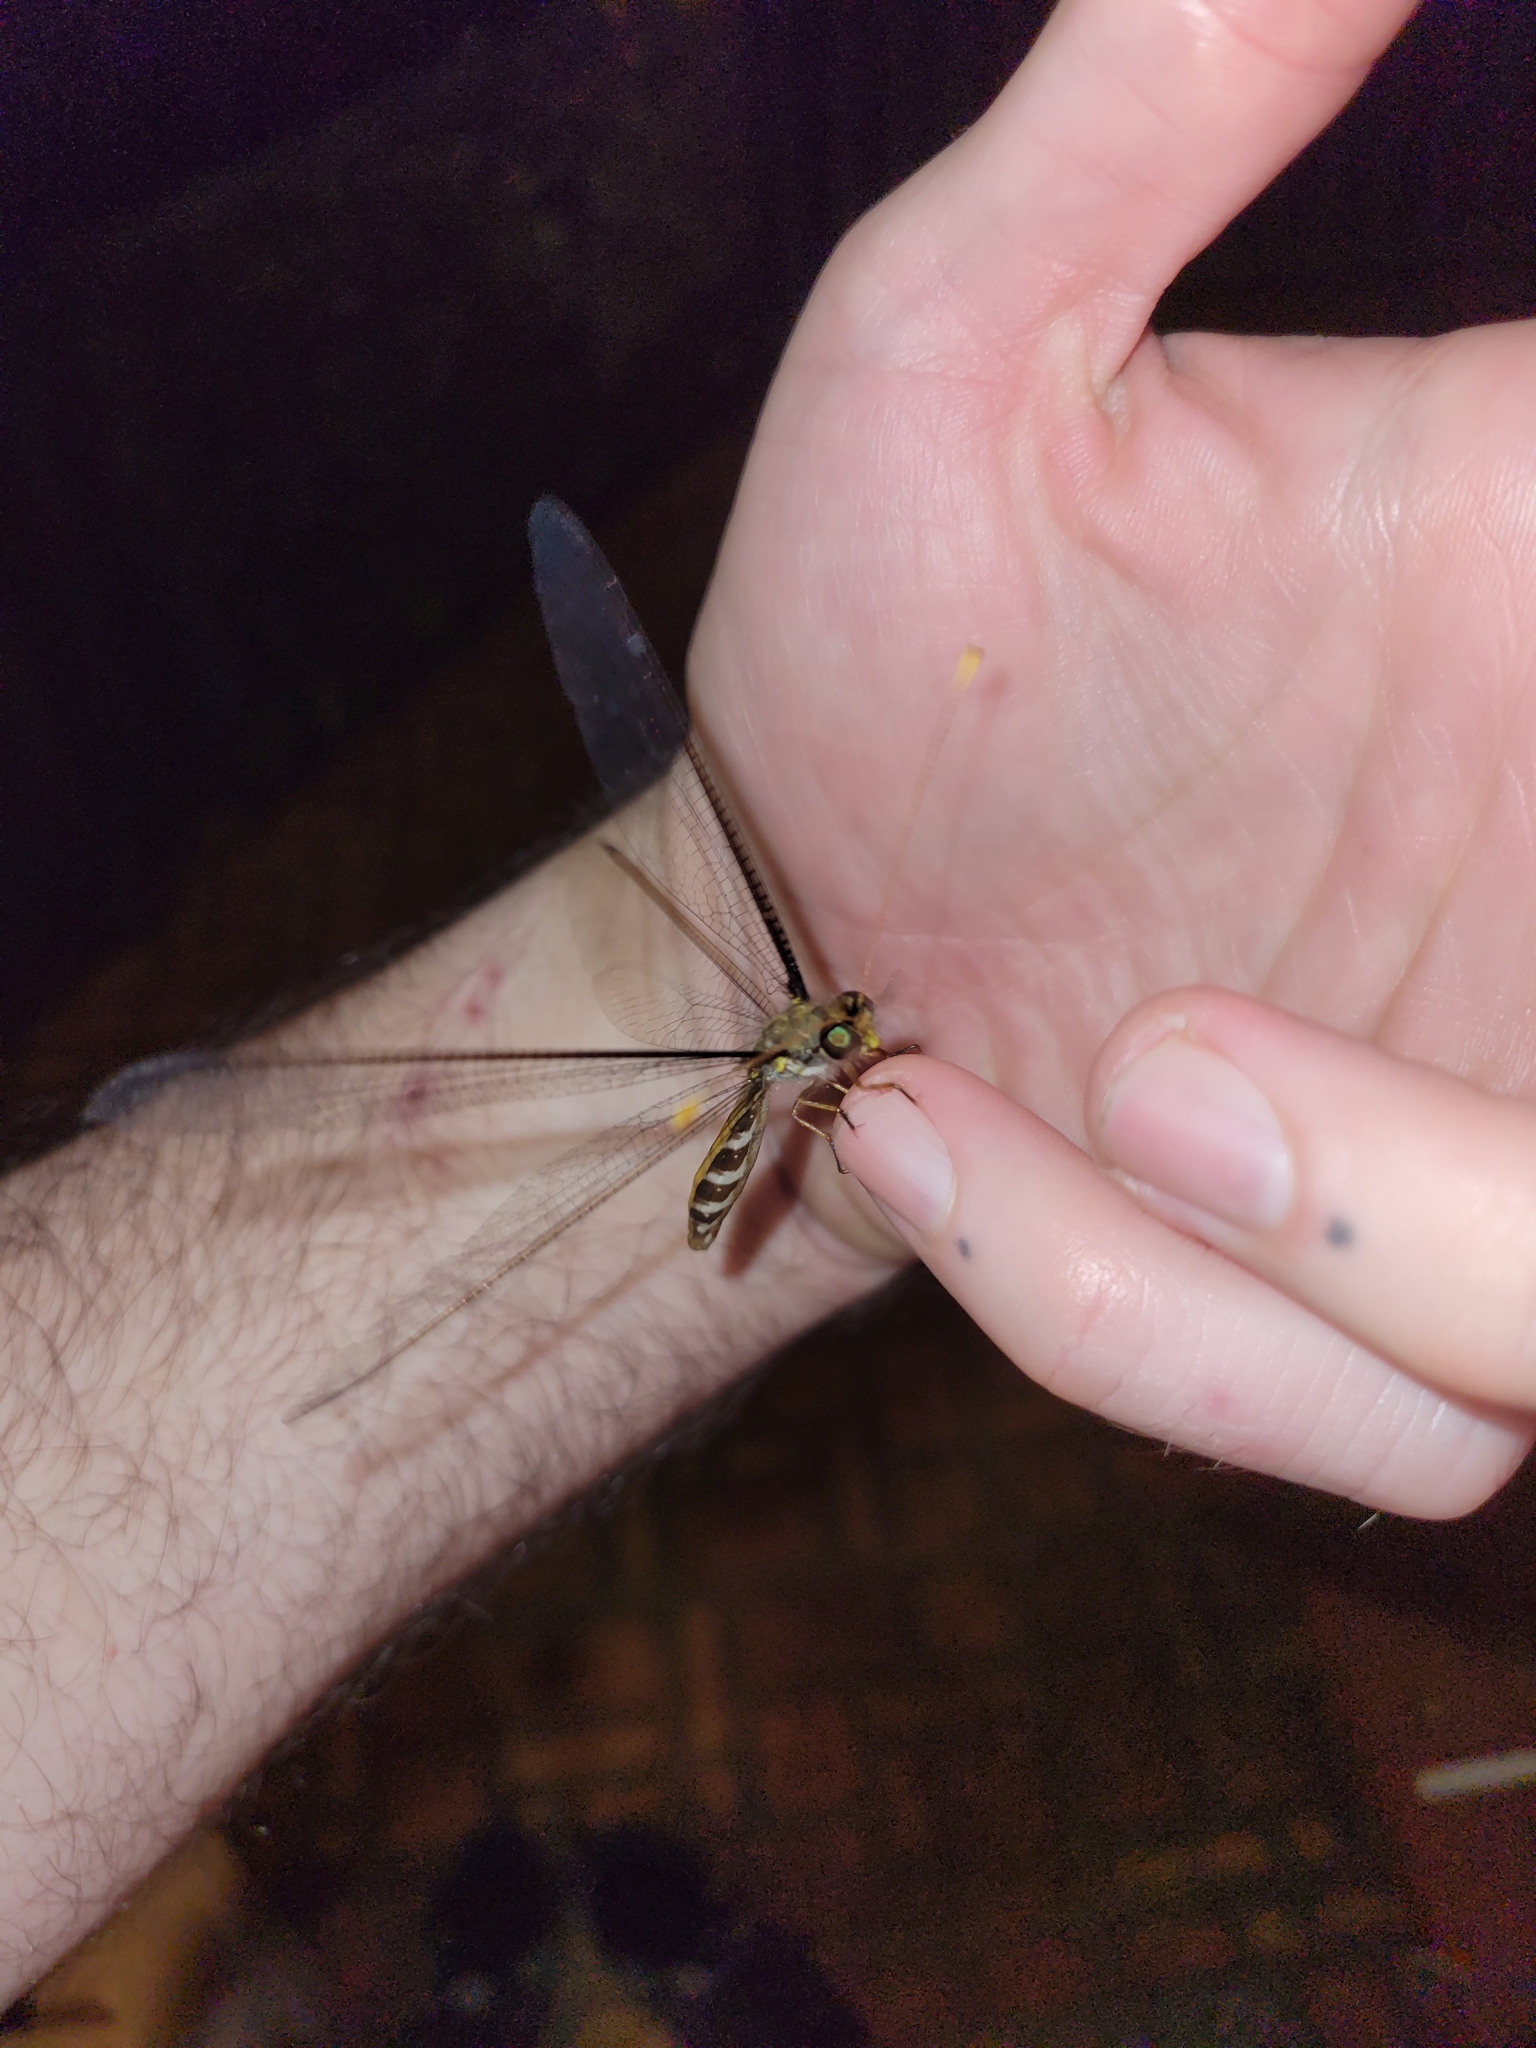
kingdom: Animalia
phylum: Arthropoda
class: Insecta
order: Neuroptera
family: Ascalaphidae
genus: Haploglenius
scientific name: Haploglenius flavicornis
